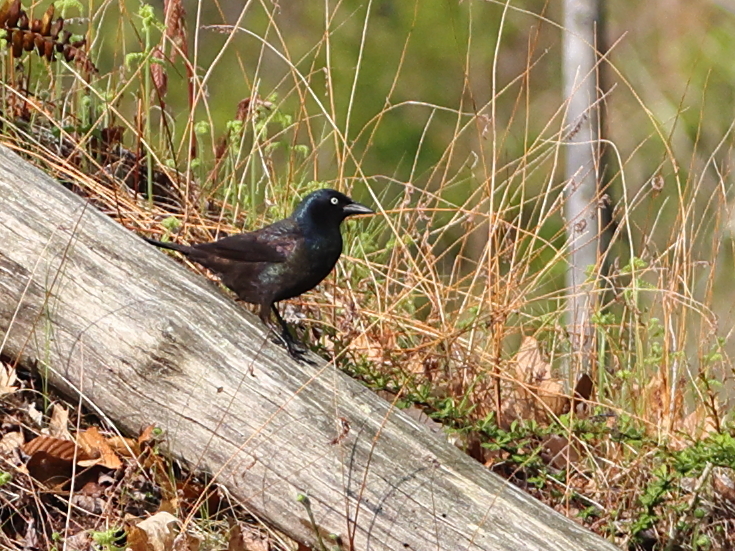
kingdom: Animalia
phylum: Chordata
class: Aves
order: Passeriformes
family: Icteridae
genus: Quiscalus
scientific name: Quiscalus quiscula
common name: Common grackle
